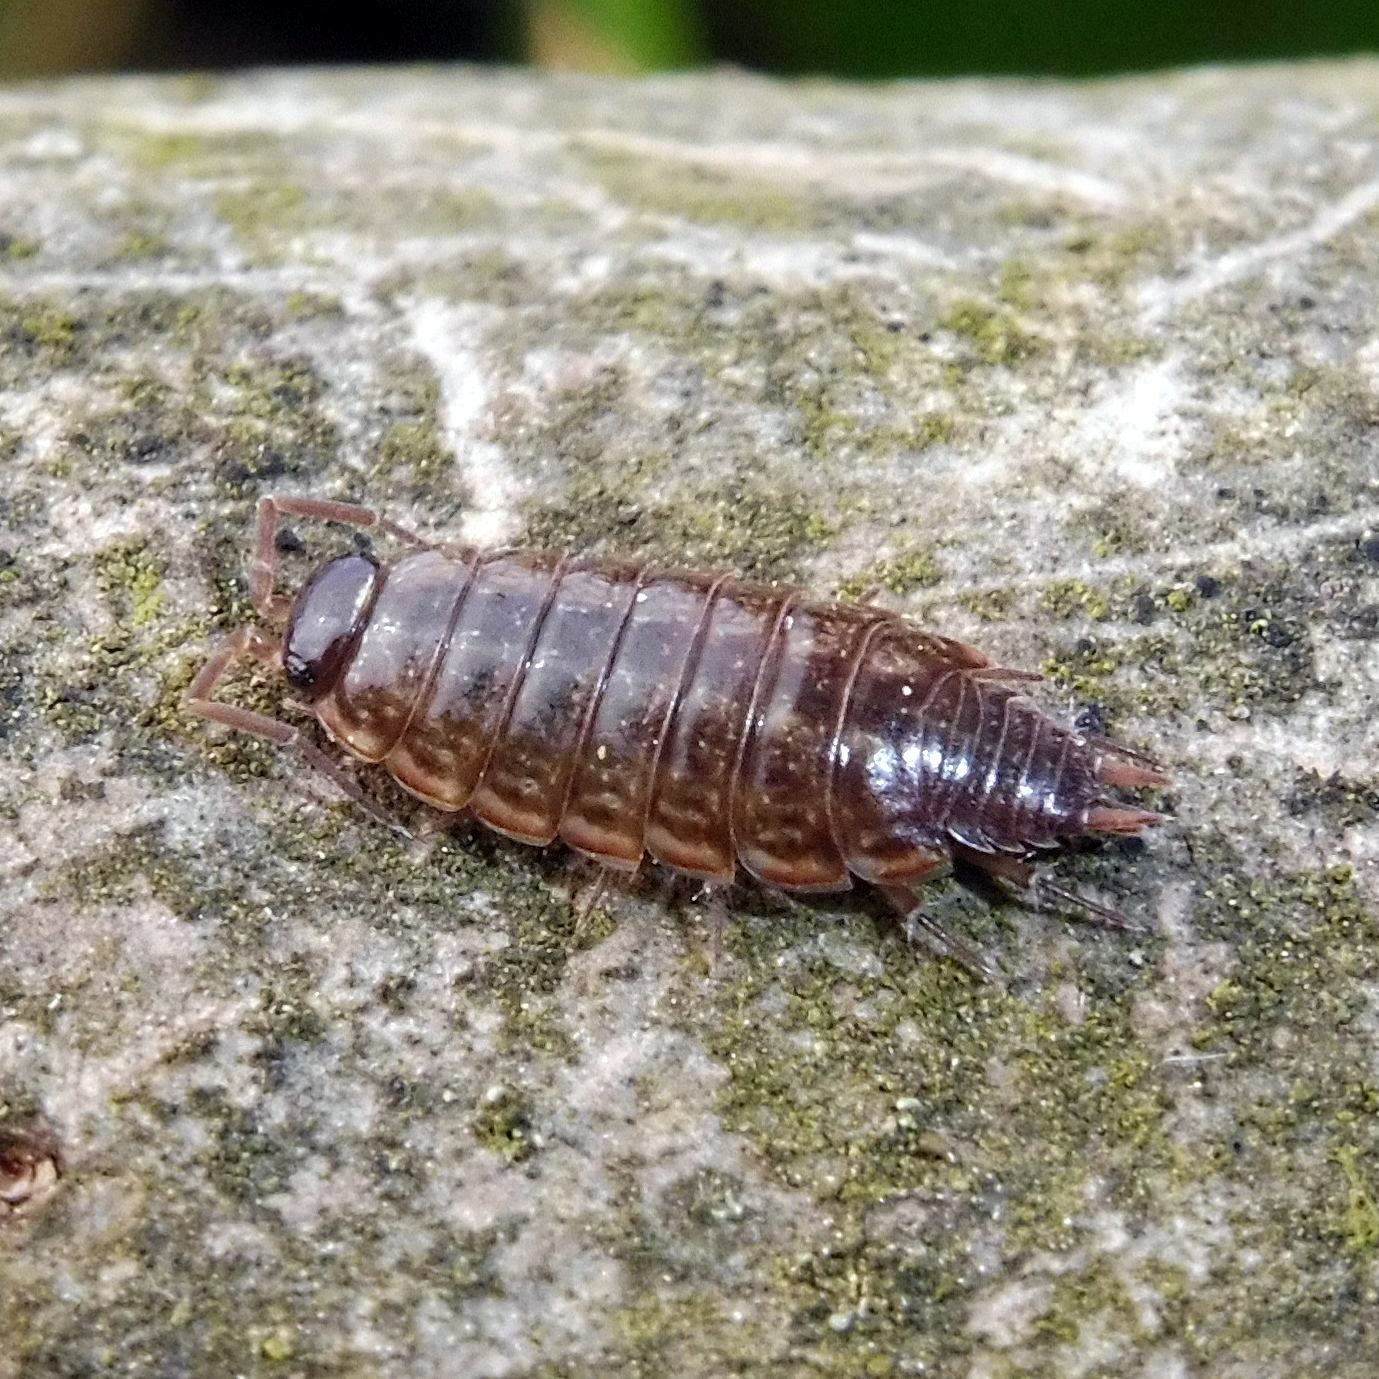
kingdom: Animalia
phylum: Arthropoda
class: Malacostraca
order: Isopoda
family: Philosciidae
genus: Philoscia
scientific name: Philoscia muscorum
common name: Common striped woodlouse
